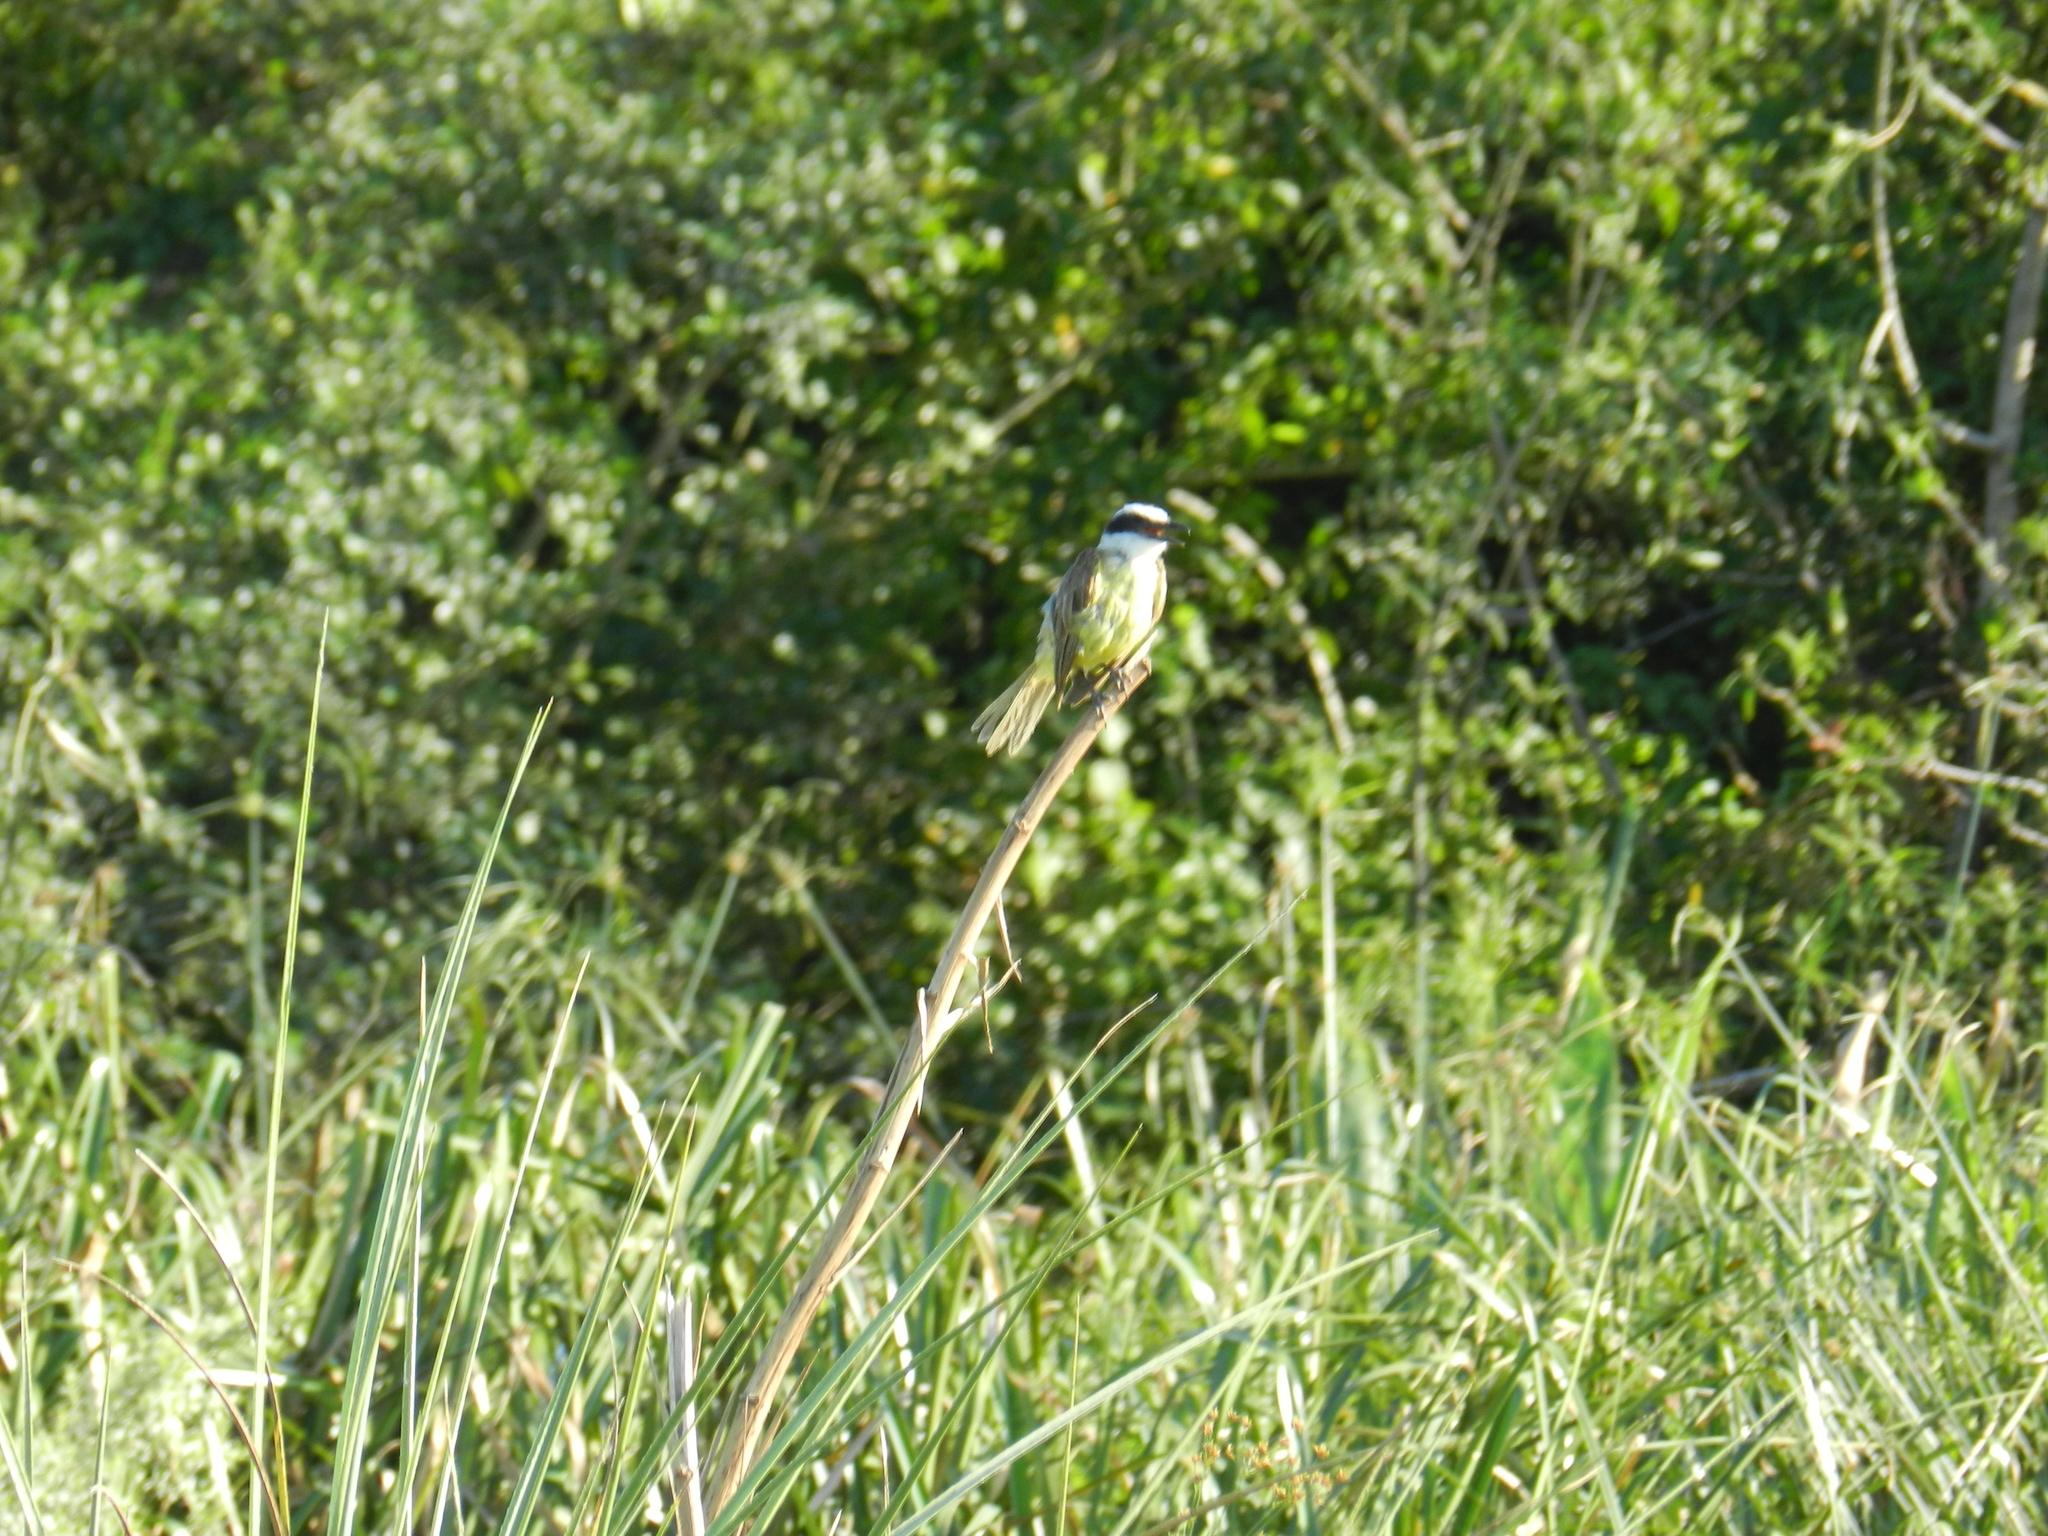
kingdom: Animalia
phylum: Chordata
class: Aves
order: Passeriformes
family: Tyrannidae
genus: Pitangus
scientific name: Pitangus sulphuratus
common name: Great kiskadee
